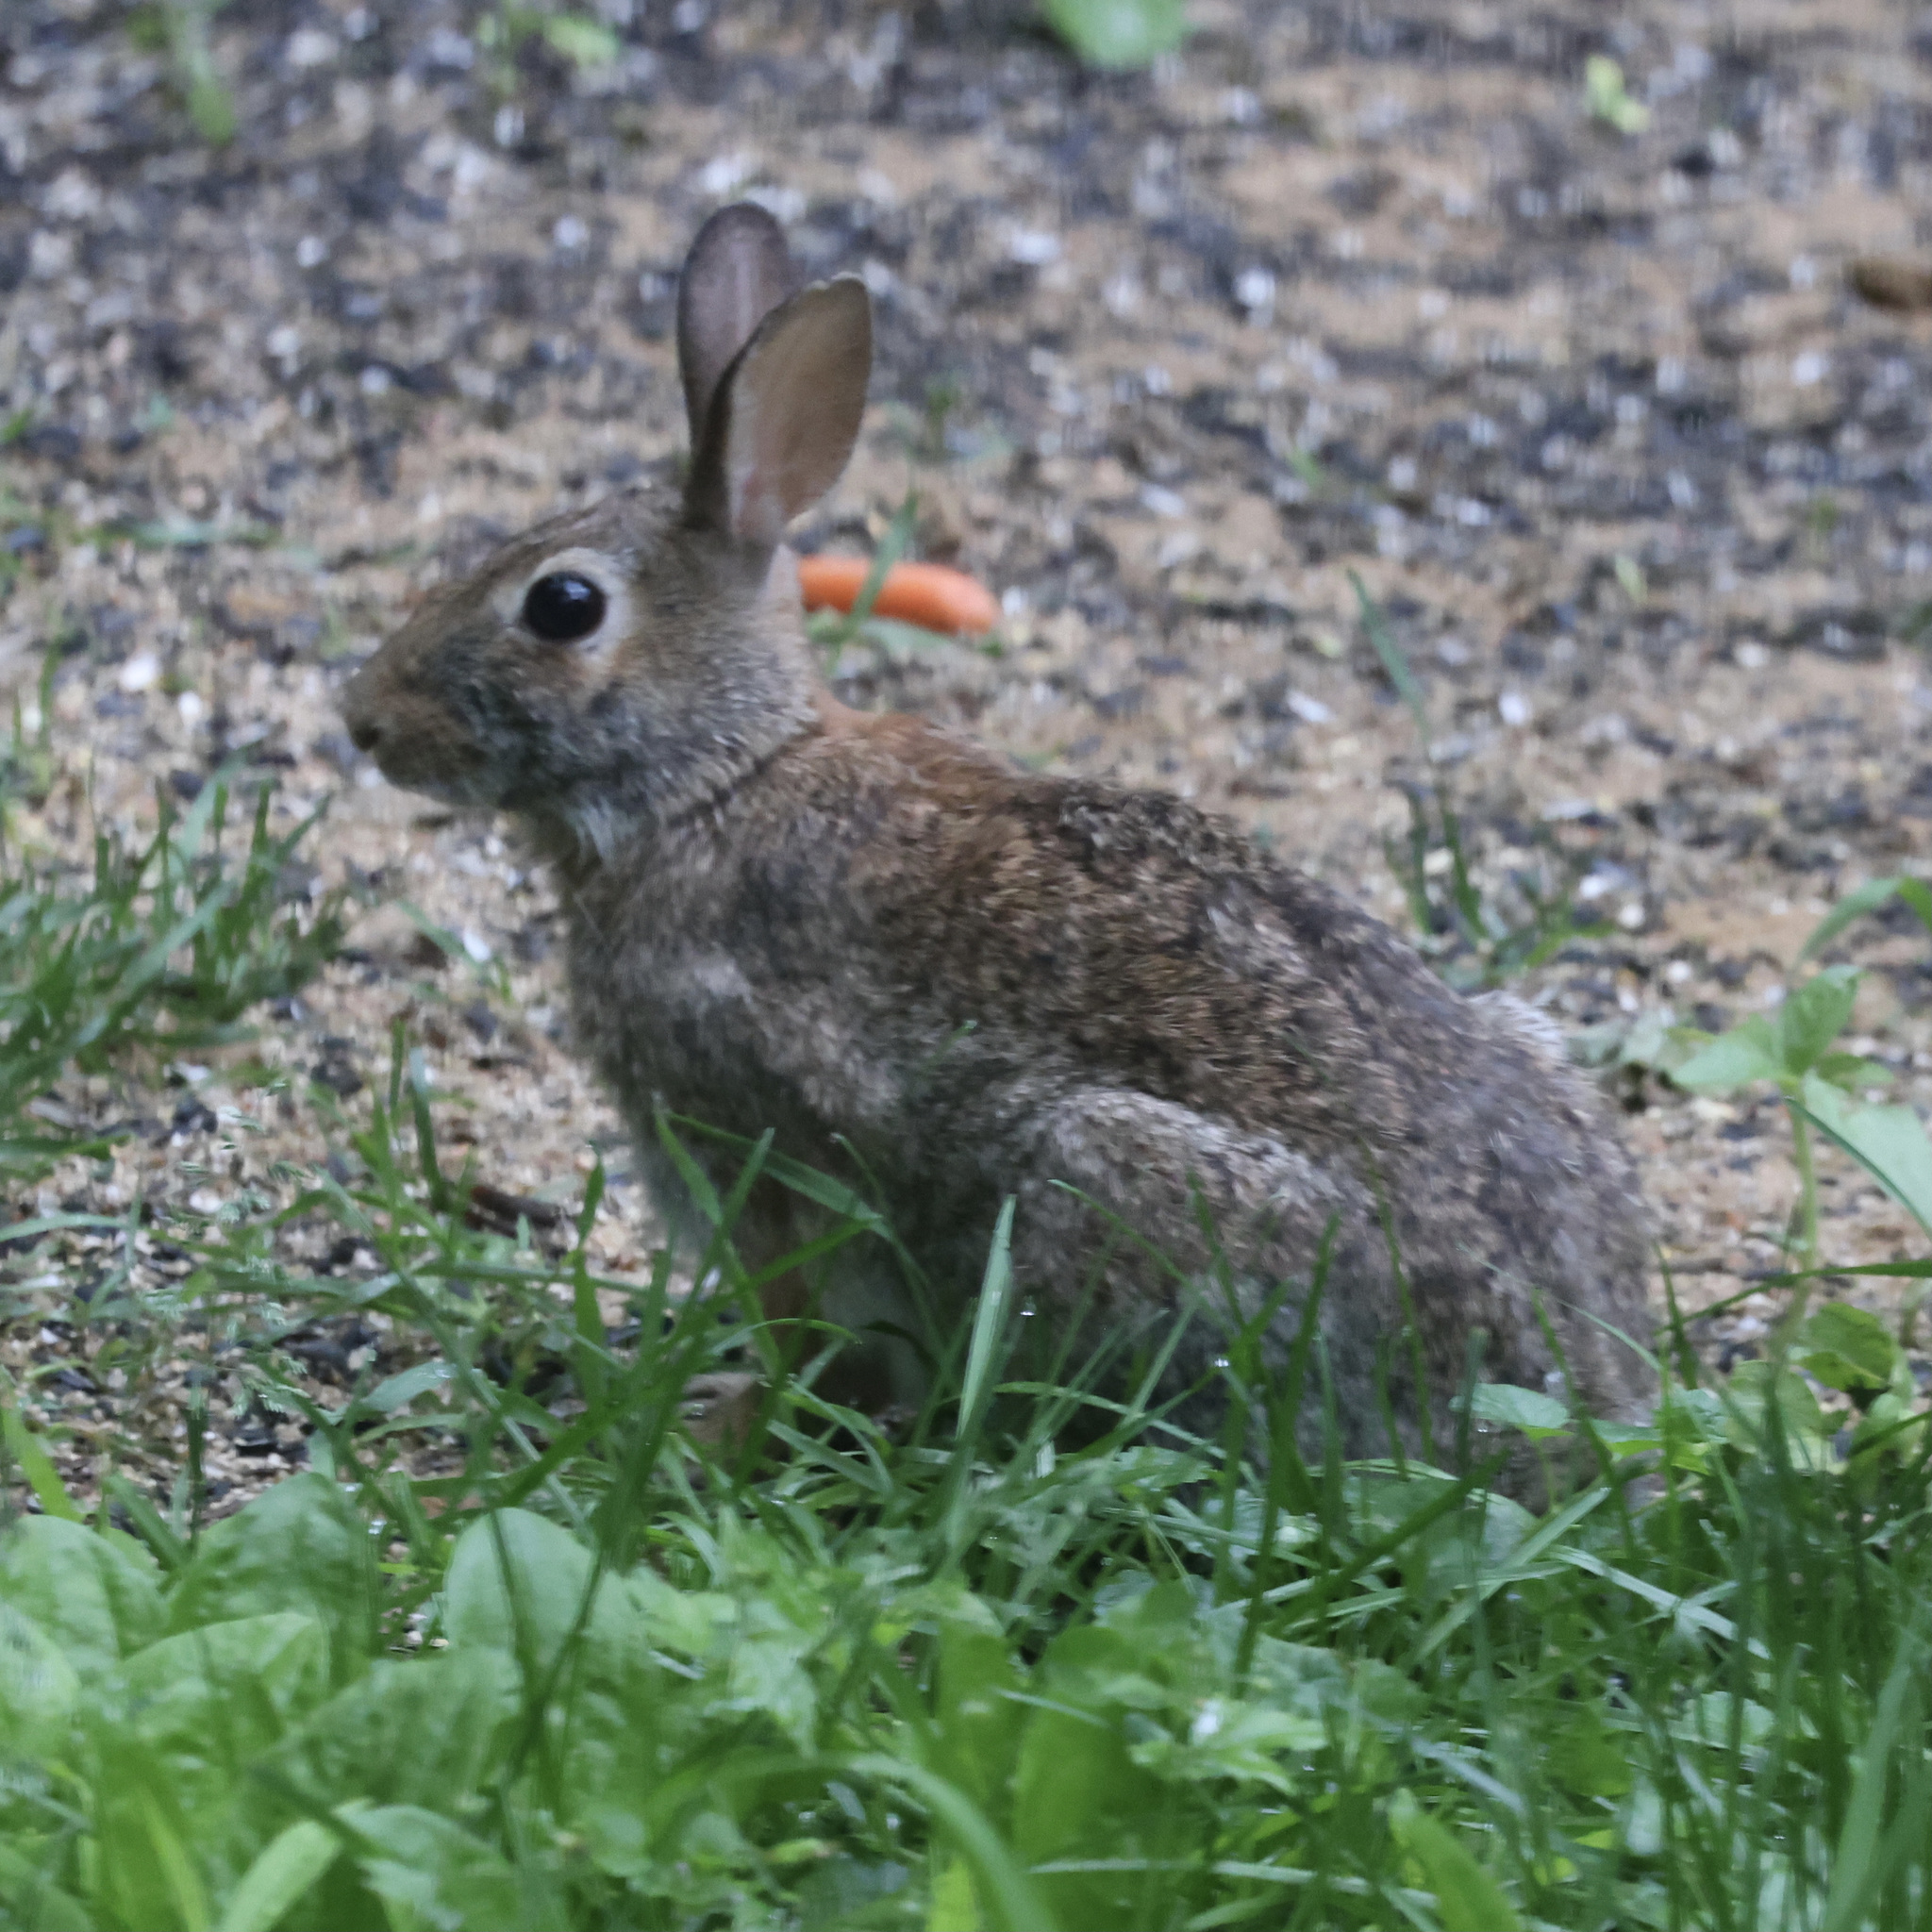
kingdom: Animalia
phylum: Chordata
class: Mammalia
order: Lagomorpha
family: Leporidae
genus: Sylvilagus
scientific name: Sylvilagus floridanus
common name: Eastern cottontail
